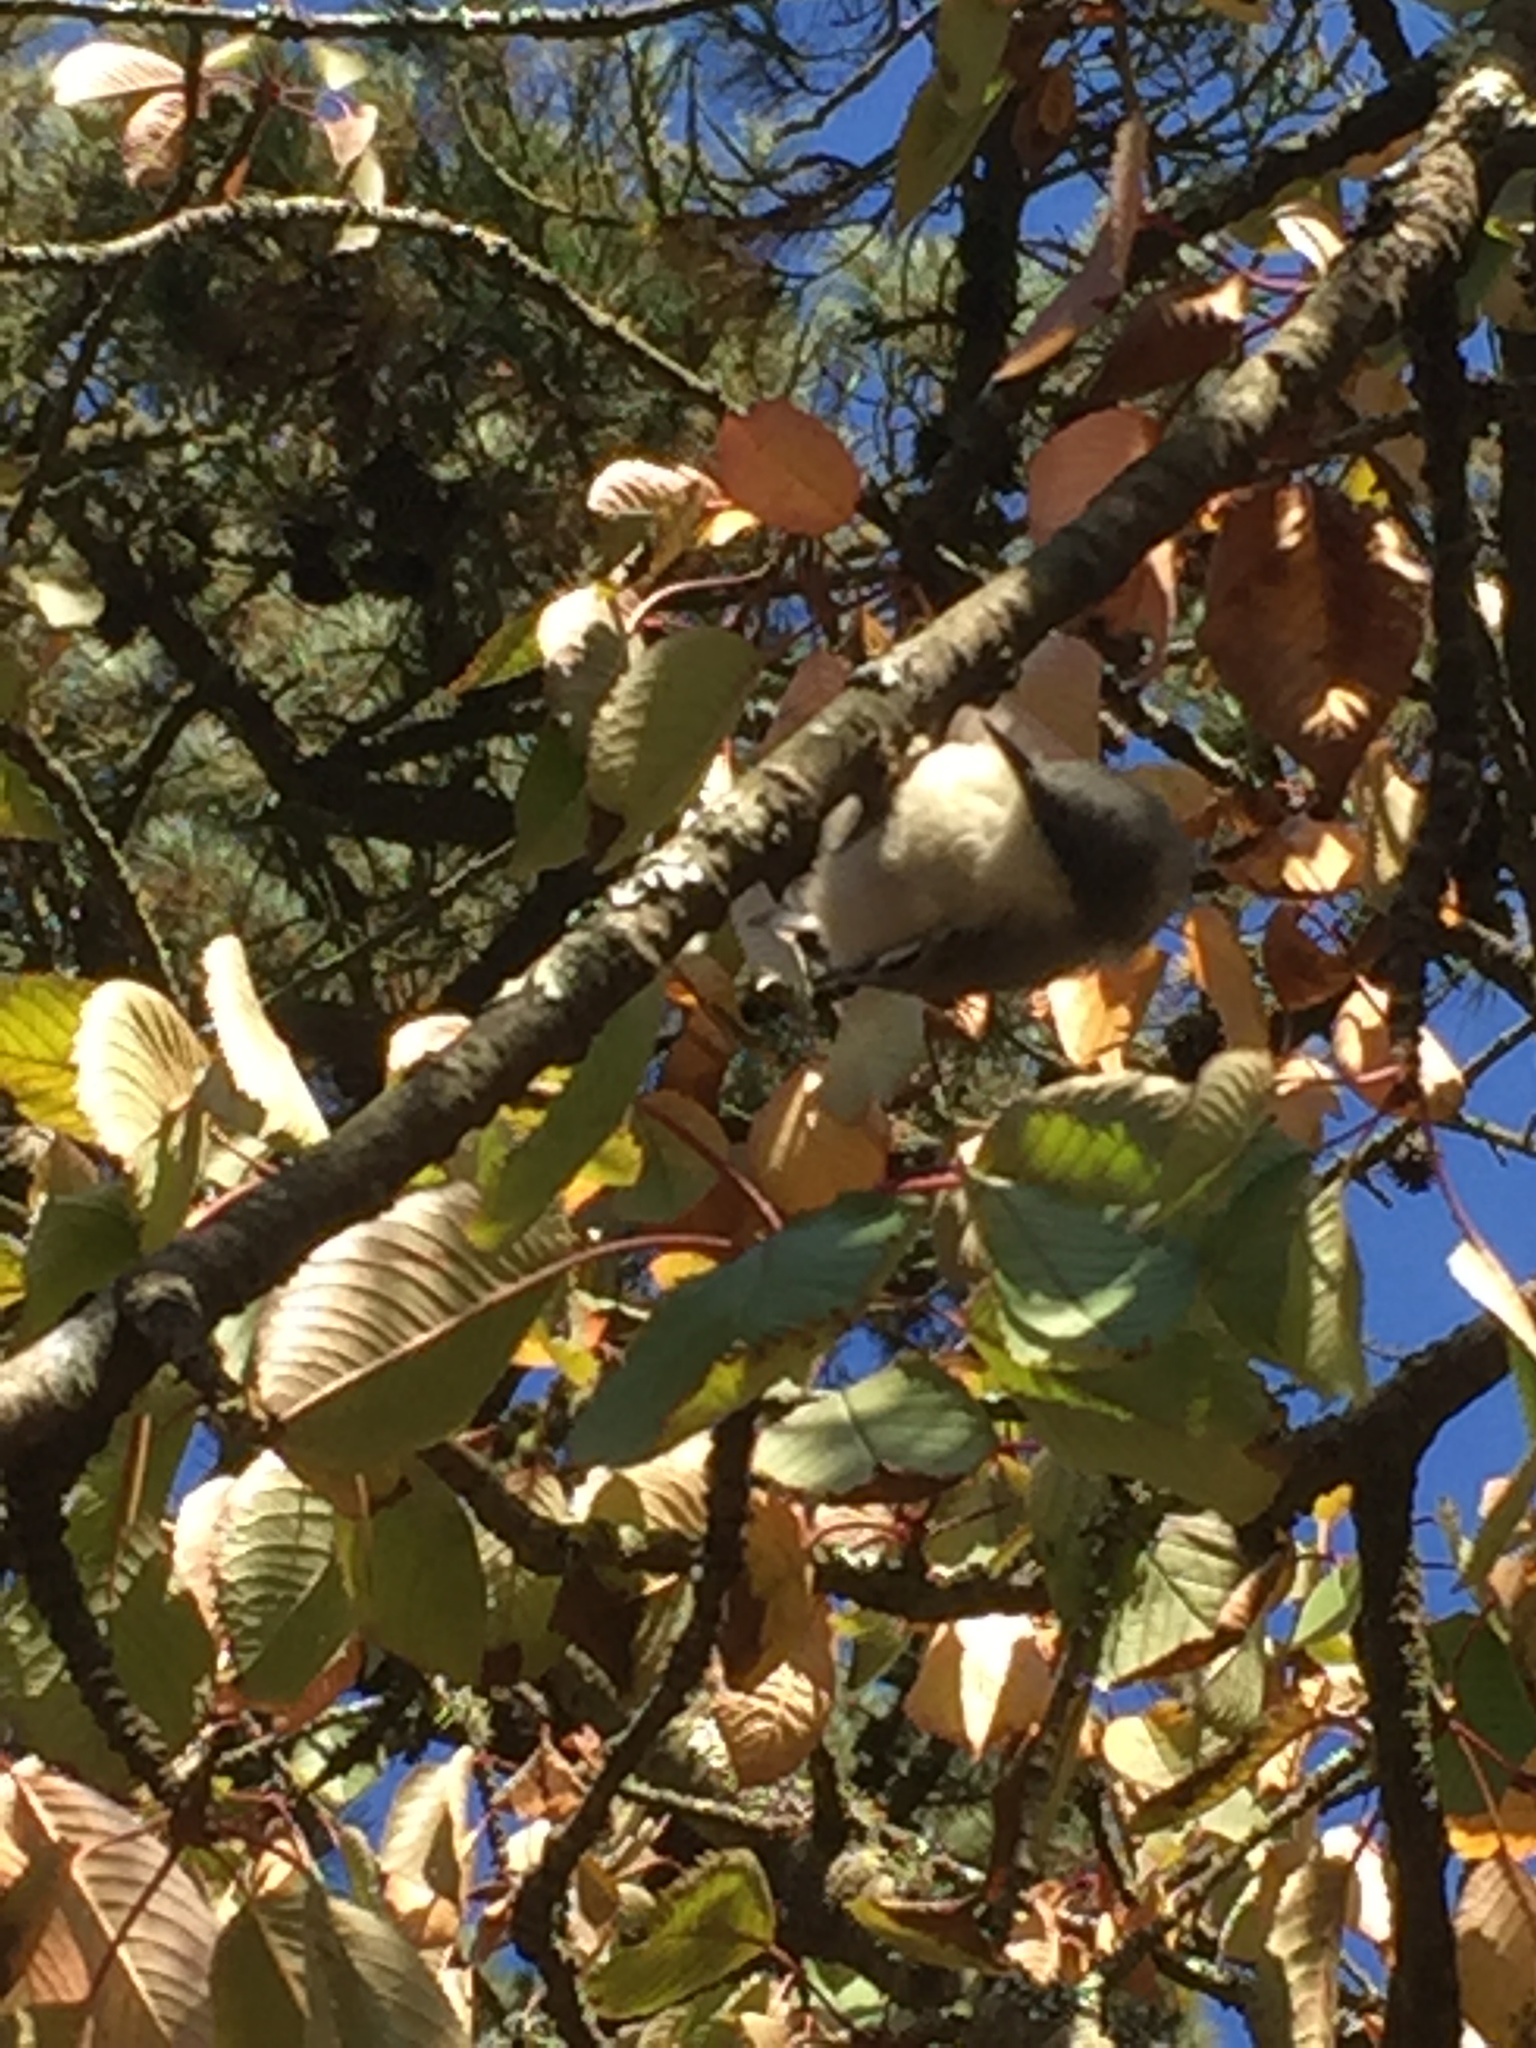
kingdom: Animalia
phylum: Chordata
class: Aves
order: Passeriformes
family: Sittidae
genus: Sitta
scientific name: Sitta pygmaea
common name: Pygmy nuthatch
